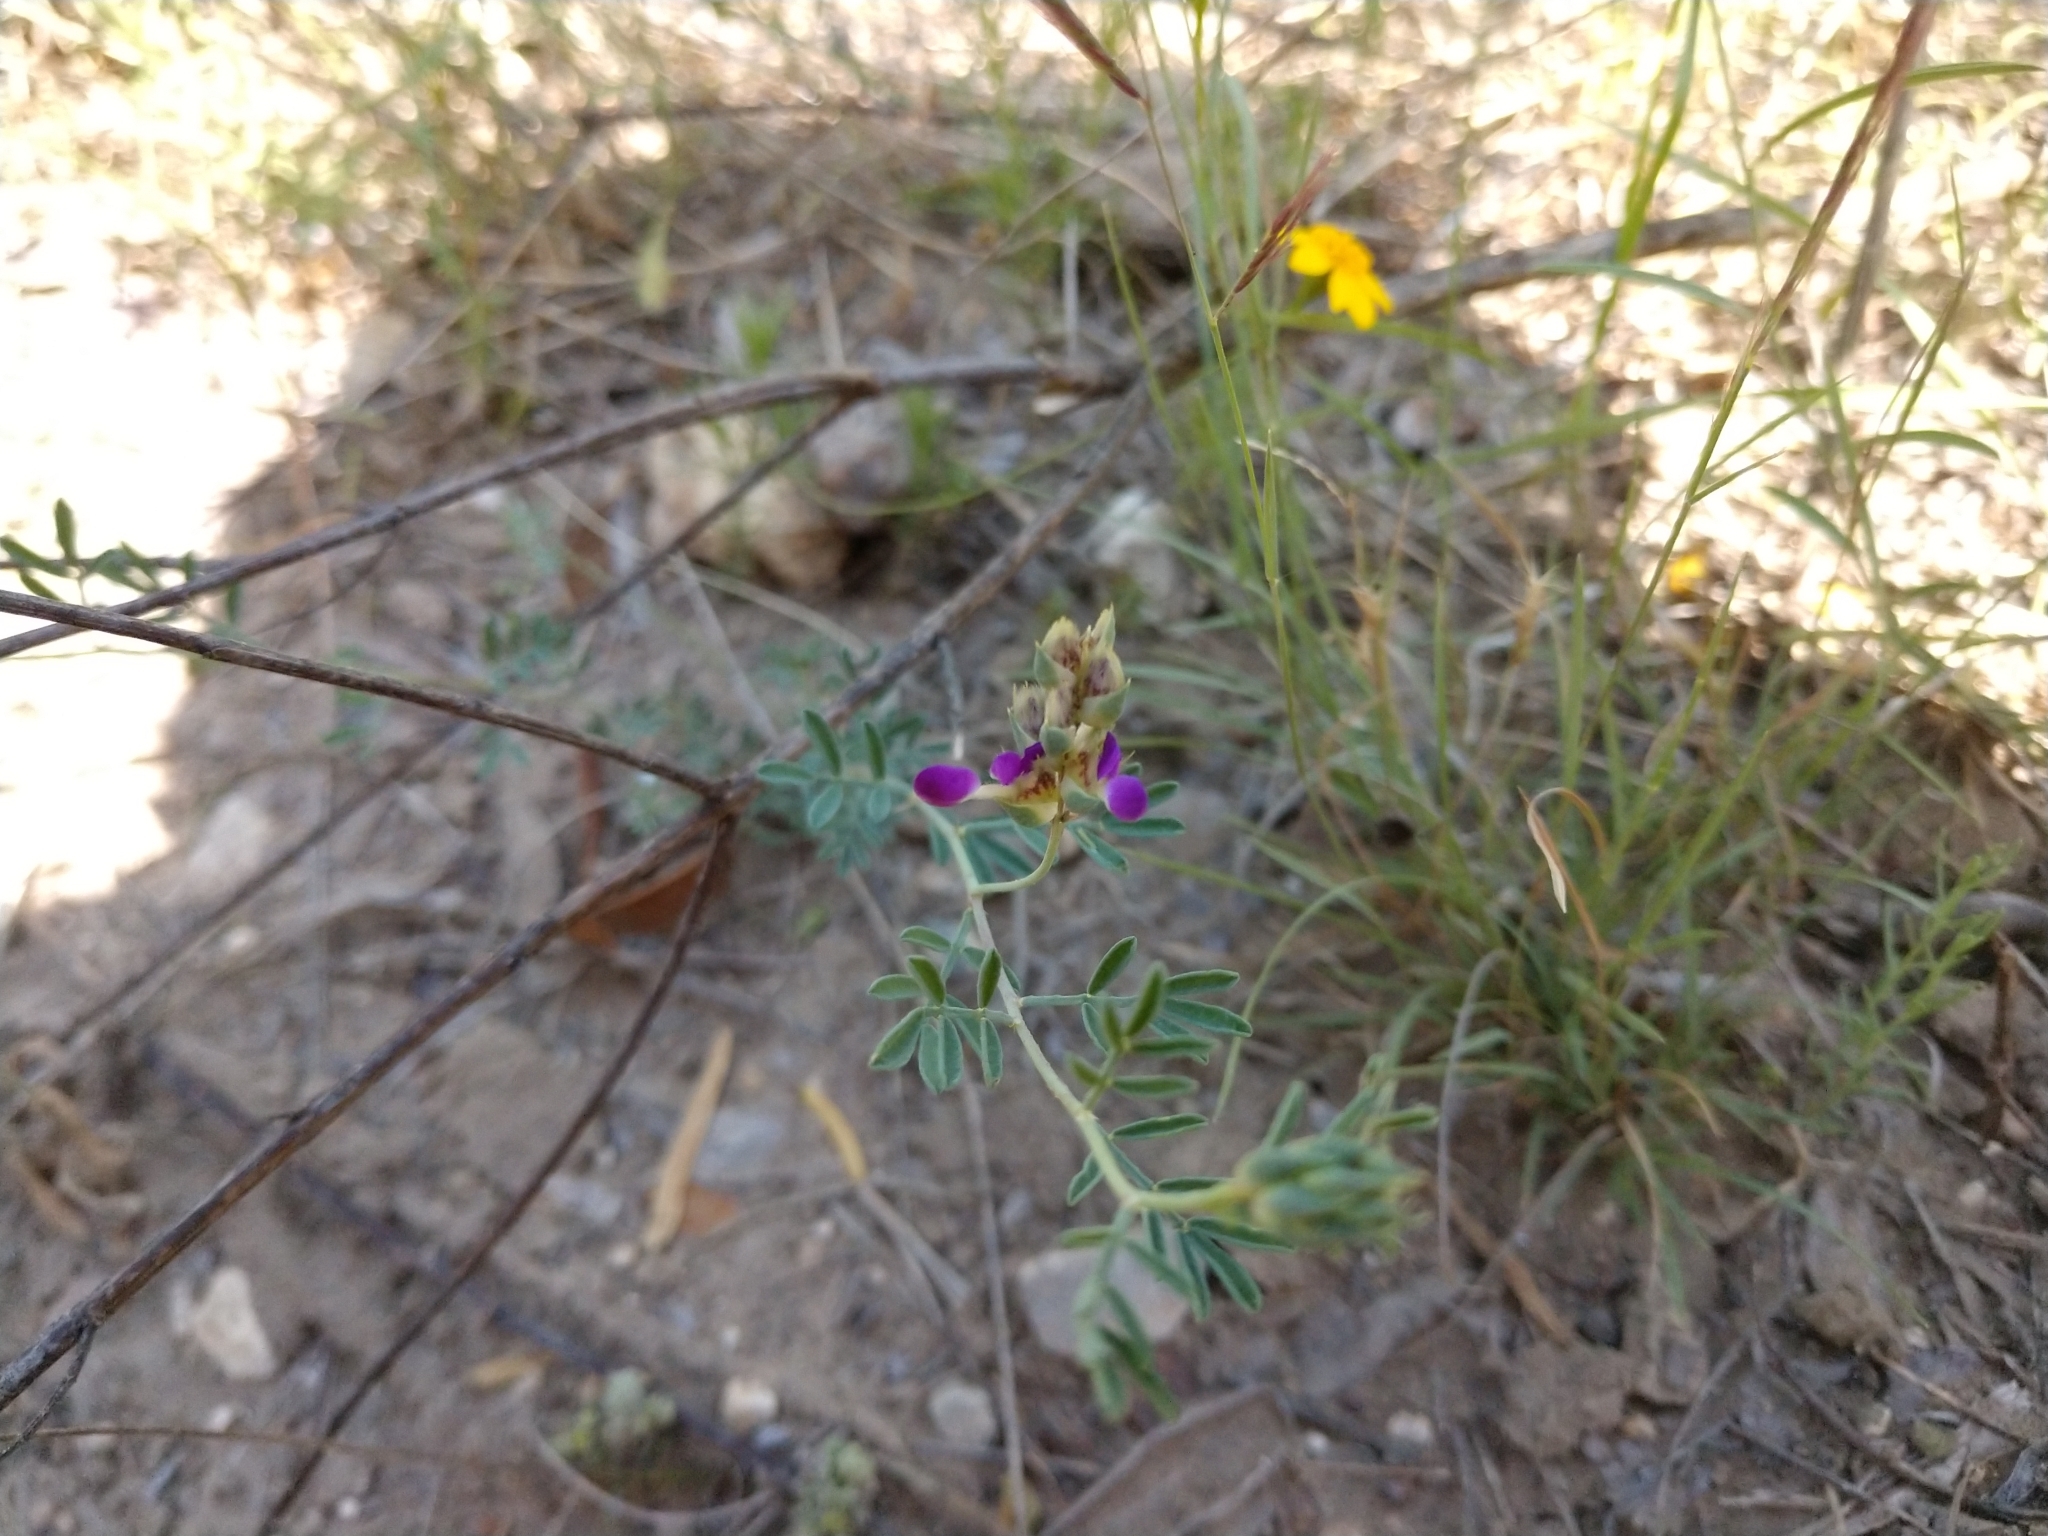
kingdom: Plantae
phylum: Tracheophyta
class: Magnoliopsida
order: Fabales
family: Fabaceae
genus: Dalea
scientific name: Dalea pogonathera
